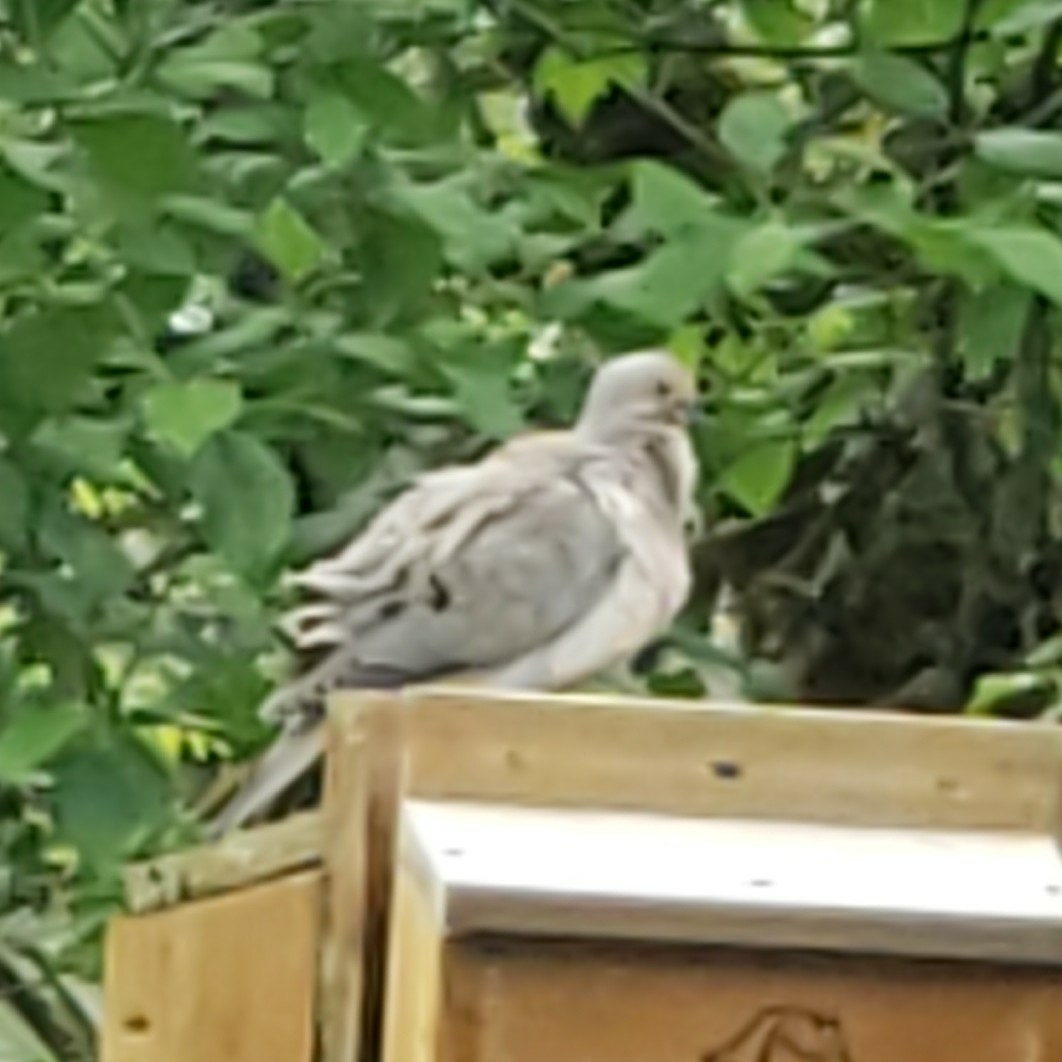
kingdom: Animalia
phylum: Chordata
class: Aves
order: Columbiformes
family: Columbidae
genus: Zenaida
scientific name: Zenaida macroura
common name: Mourning dove
